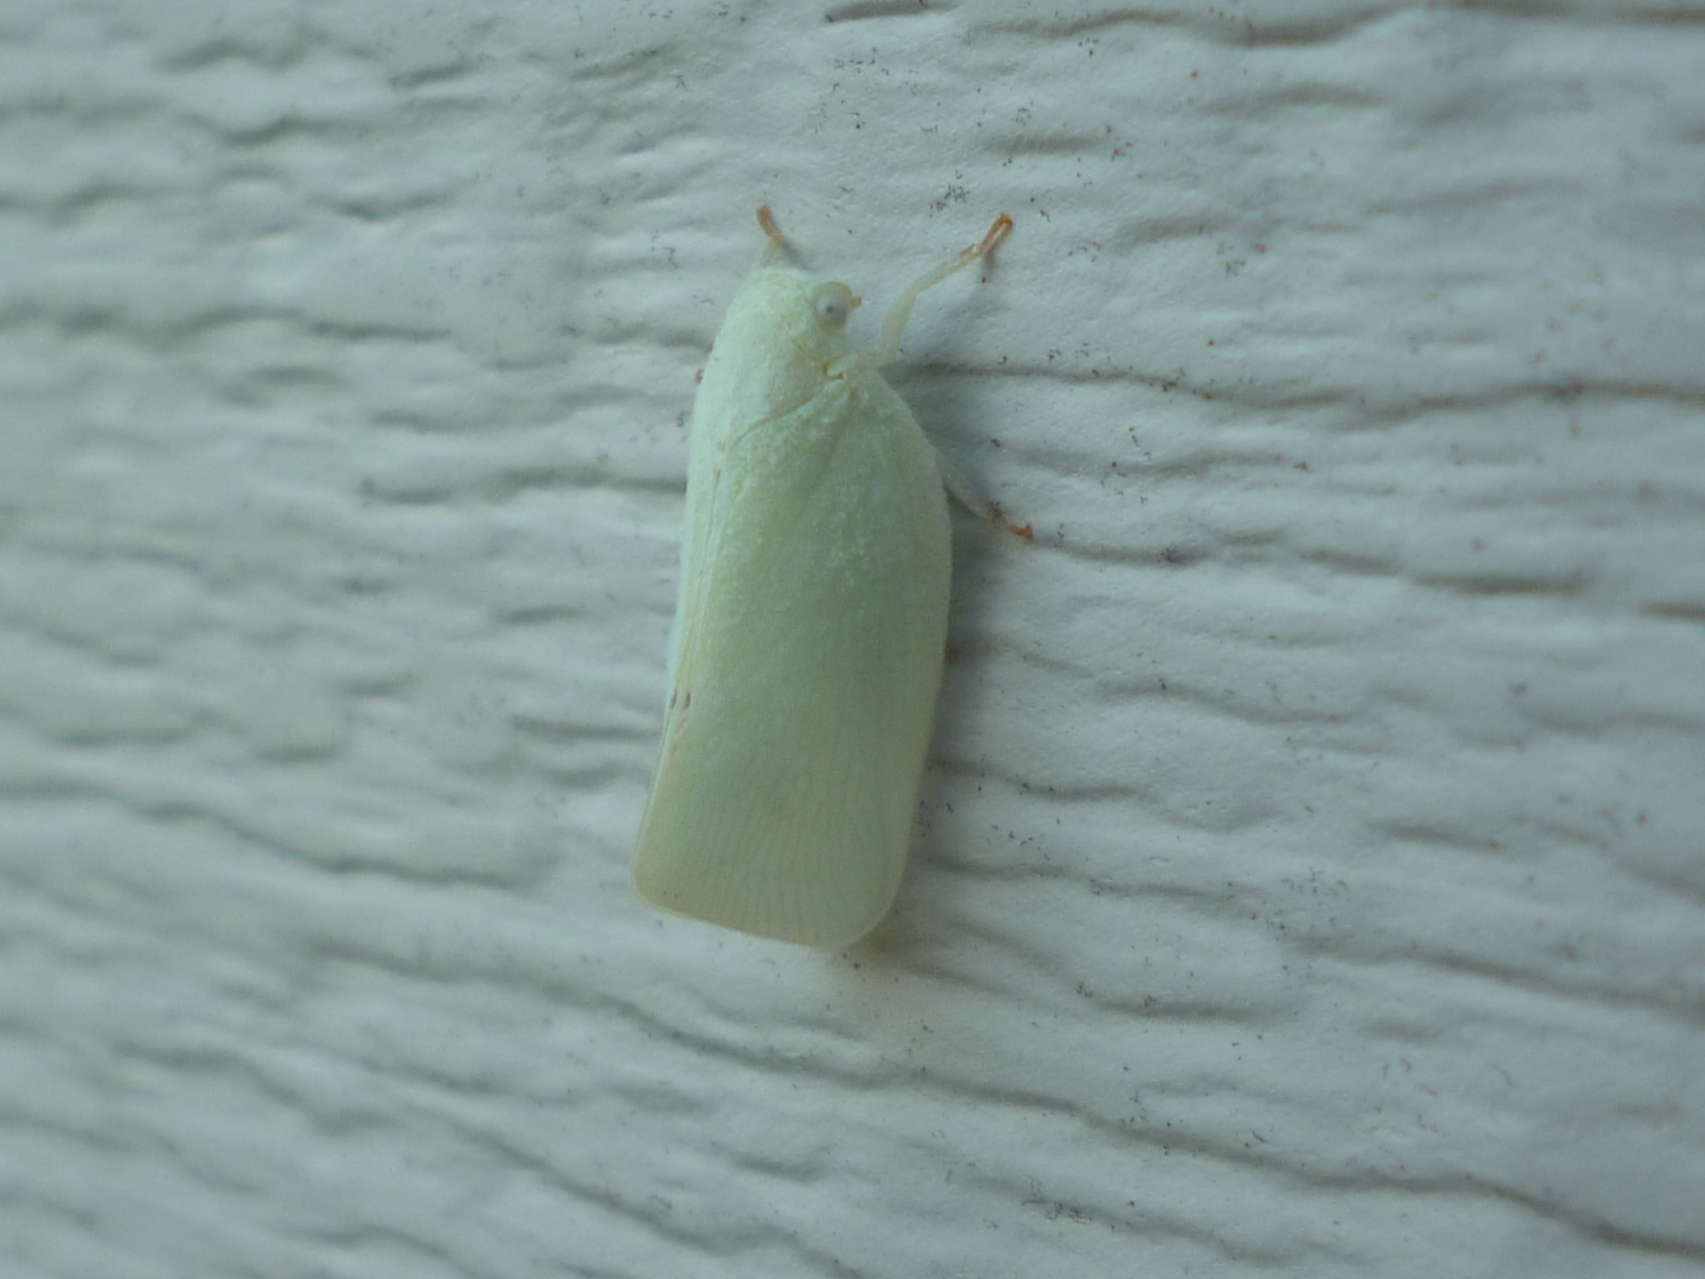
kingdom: Animalia
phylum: Arthropoda
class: Insecta
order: Hemiptera
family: Flatidae
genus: Flatormenis
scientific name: Flatormenis proxima
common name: Northern flatid planthopper
